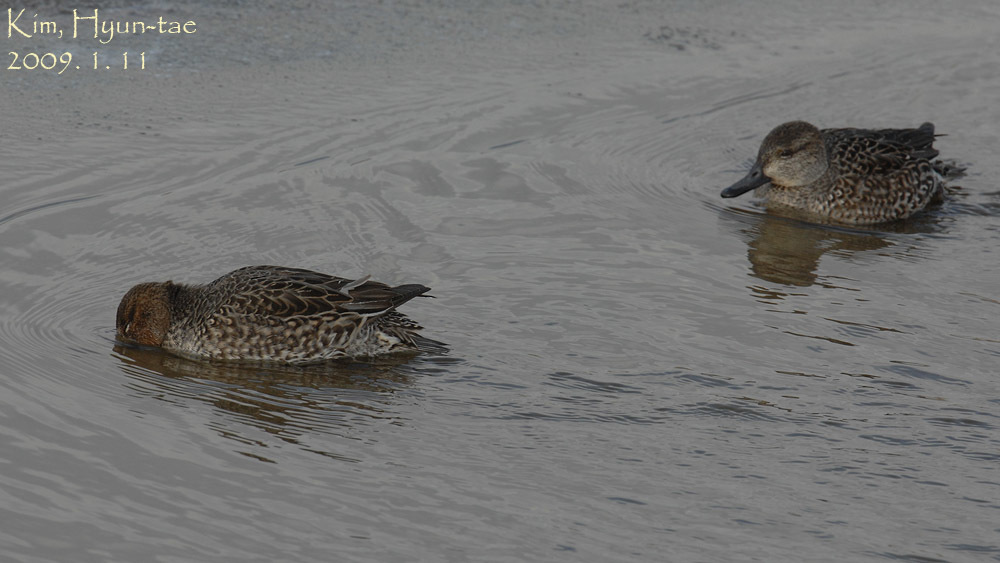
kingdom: Animalia
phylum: Chordata
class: Aves
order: Anseriformes
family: Anatidae
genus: Anas
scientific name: Anas crecca
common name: Eurasian teal
